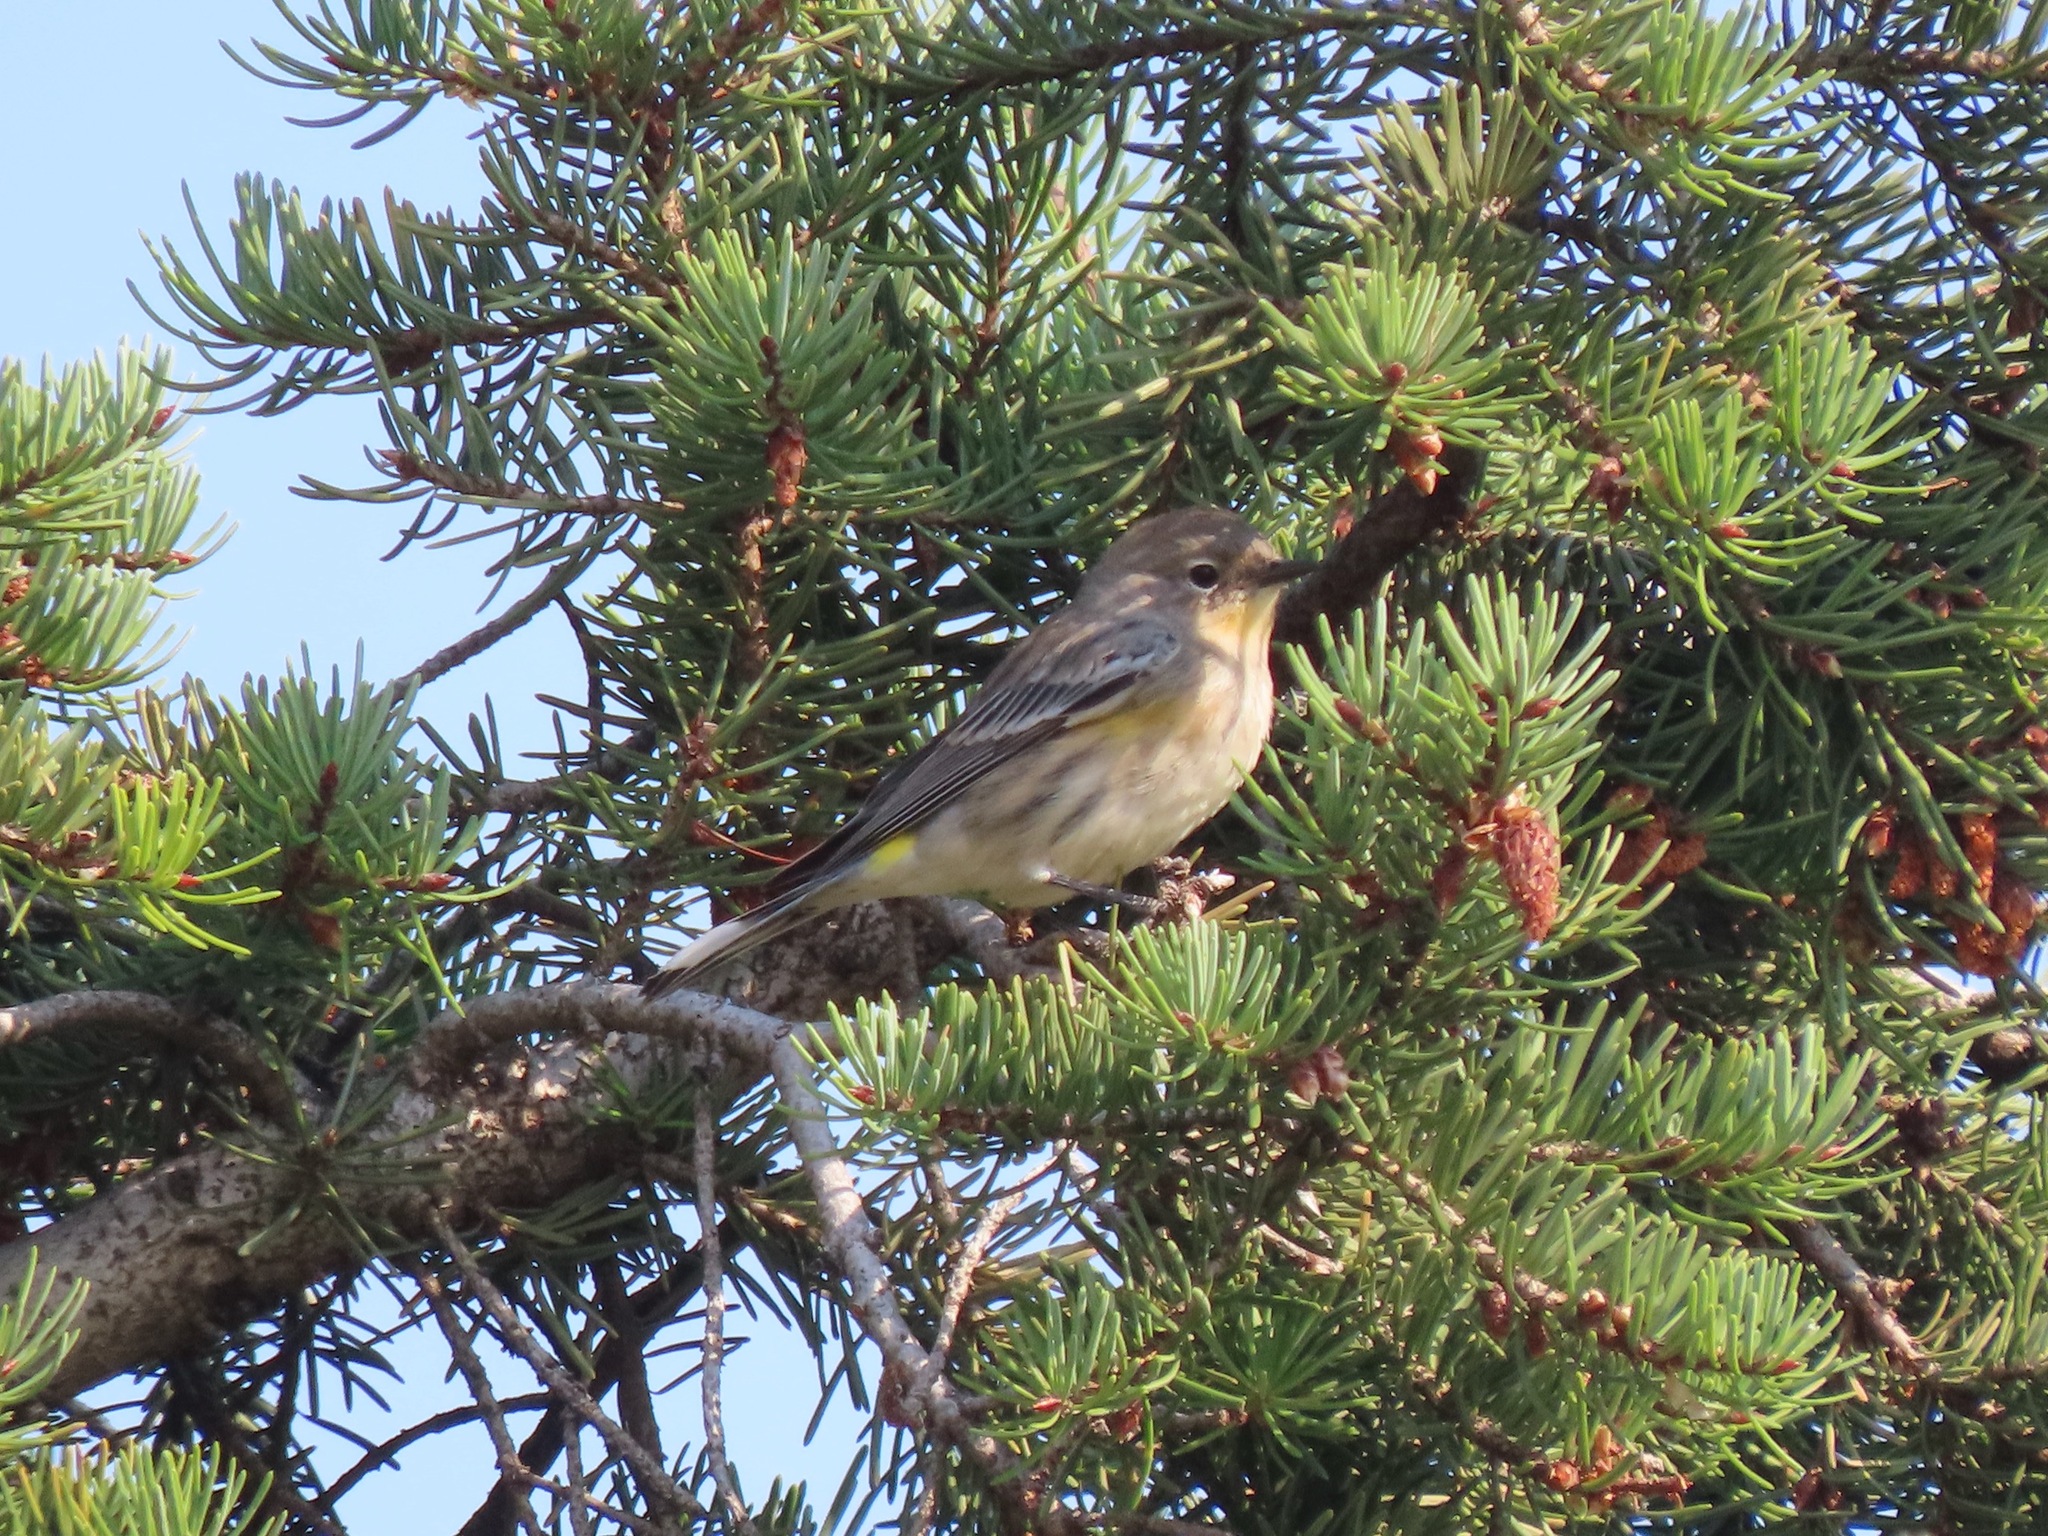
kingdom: Animalia
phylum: Chordata
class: Aves
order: Passeriformes
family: Parulidae
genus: Setophaga
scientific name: Setophaga coronata
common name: Myrtle warbler
